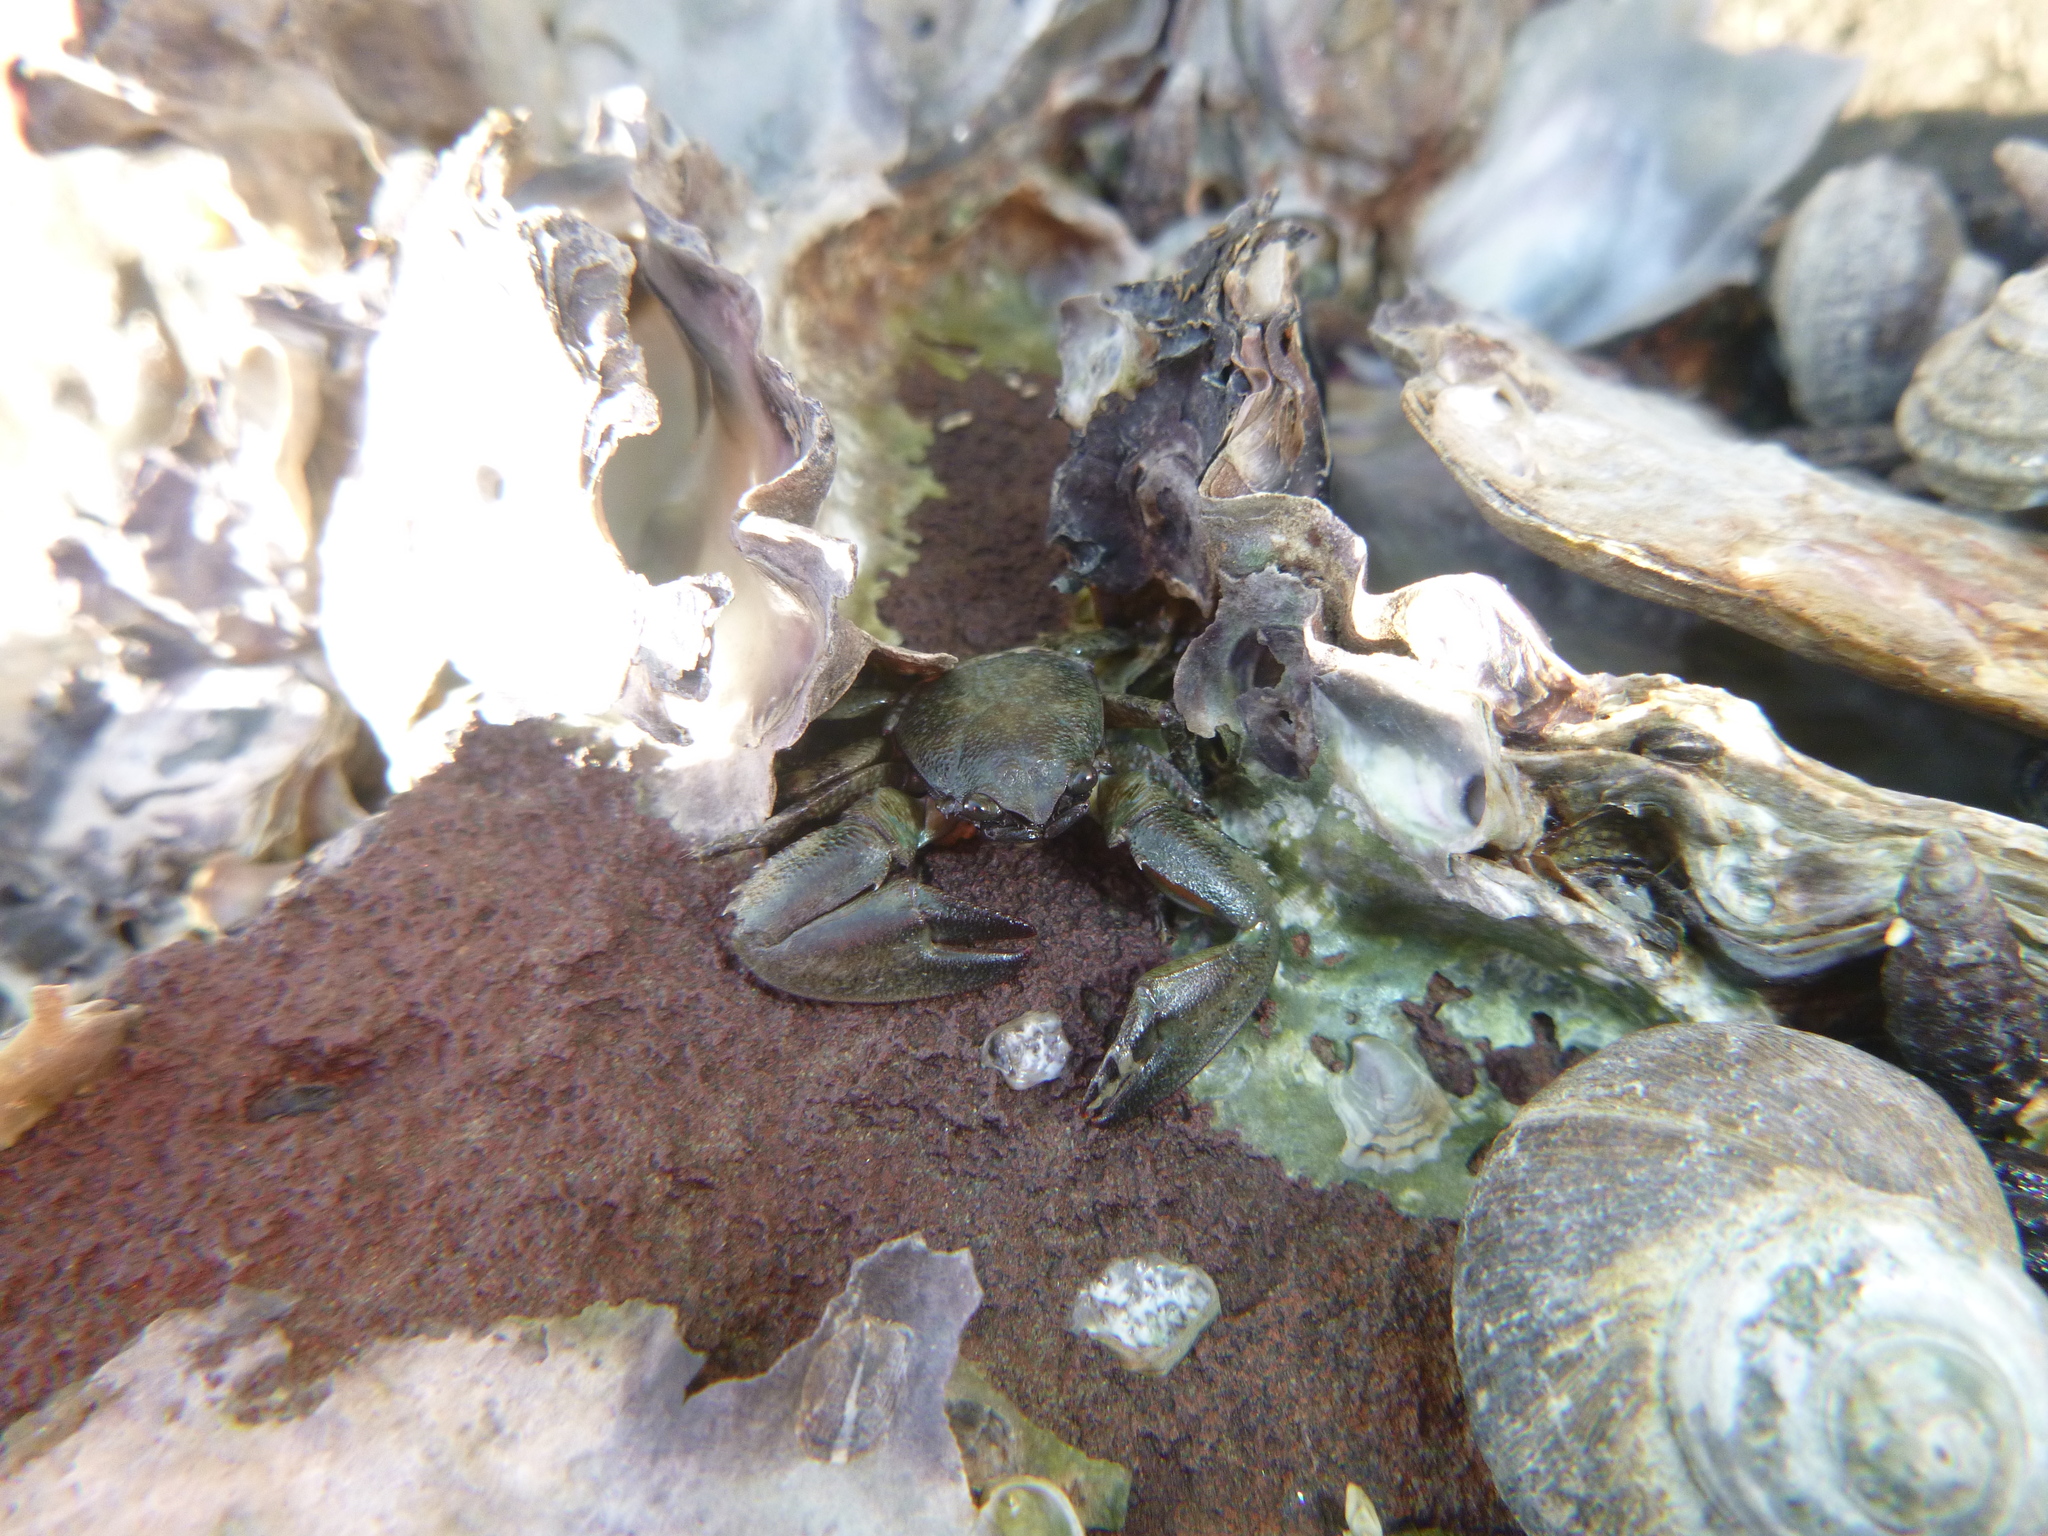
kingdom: Animalia
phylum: Arthropoda
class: Malacostraca
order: Decapoda
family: Porcellanidae
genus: Petrolisthes
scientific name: Petrolisthes elongatus
